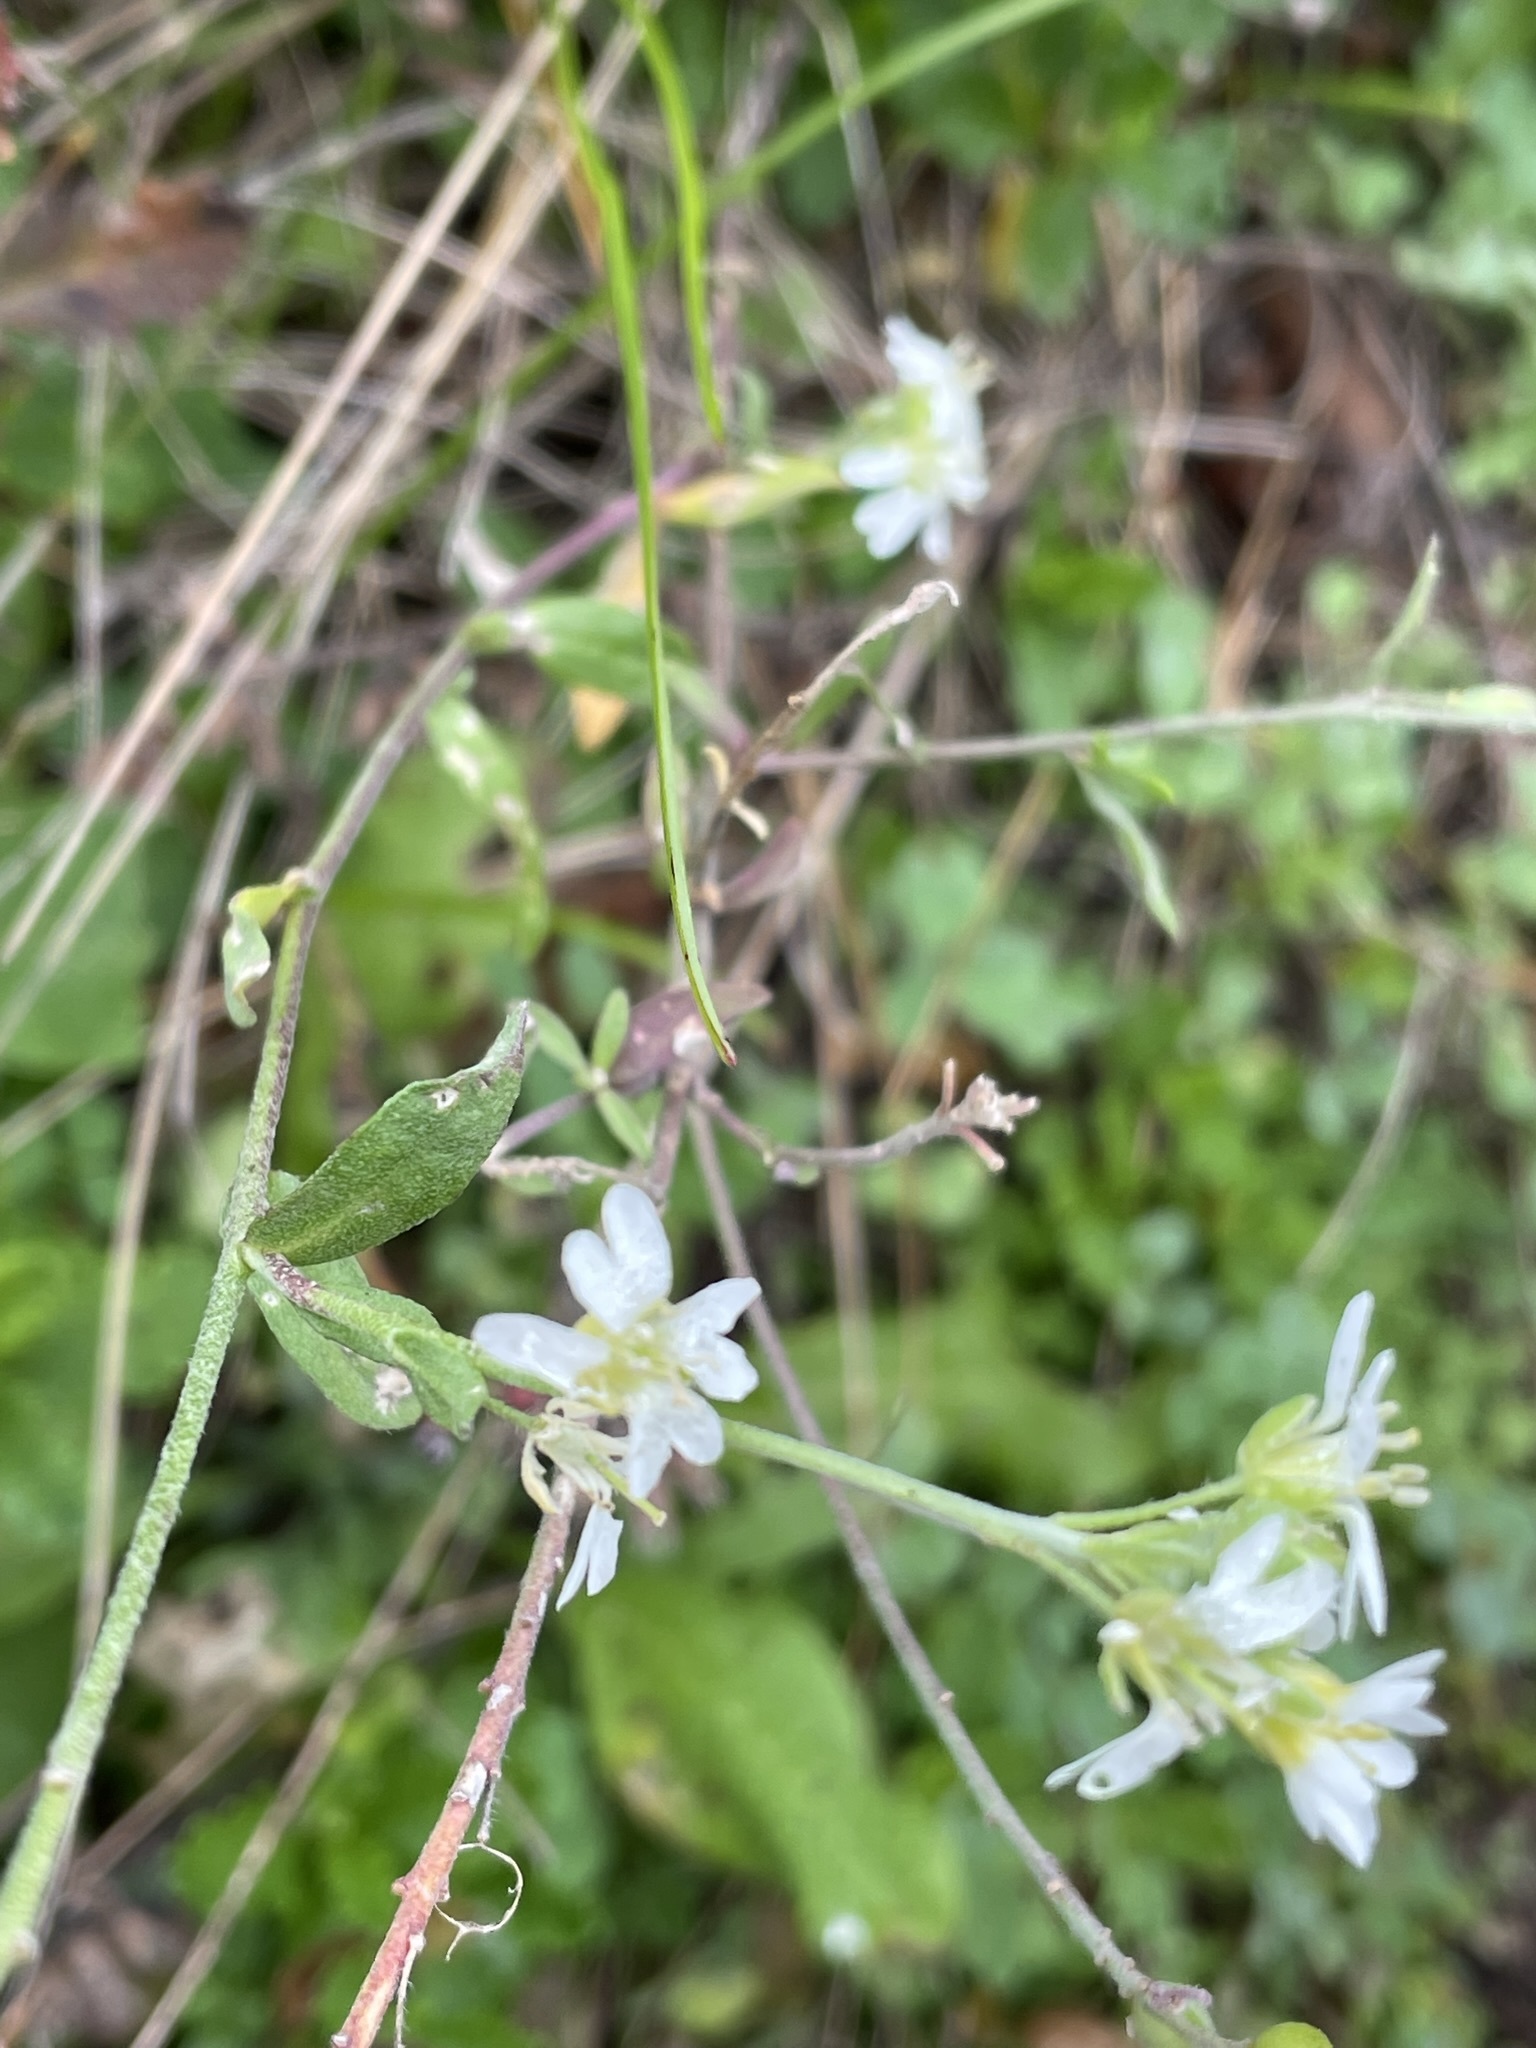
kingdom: Plantae
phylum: Tracheophyta
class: Magnoliopsida
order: Brassicales
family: Brassicaceae
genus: Berteroa
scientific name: Berteroa incana
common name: Hoary alison
